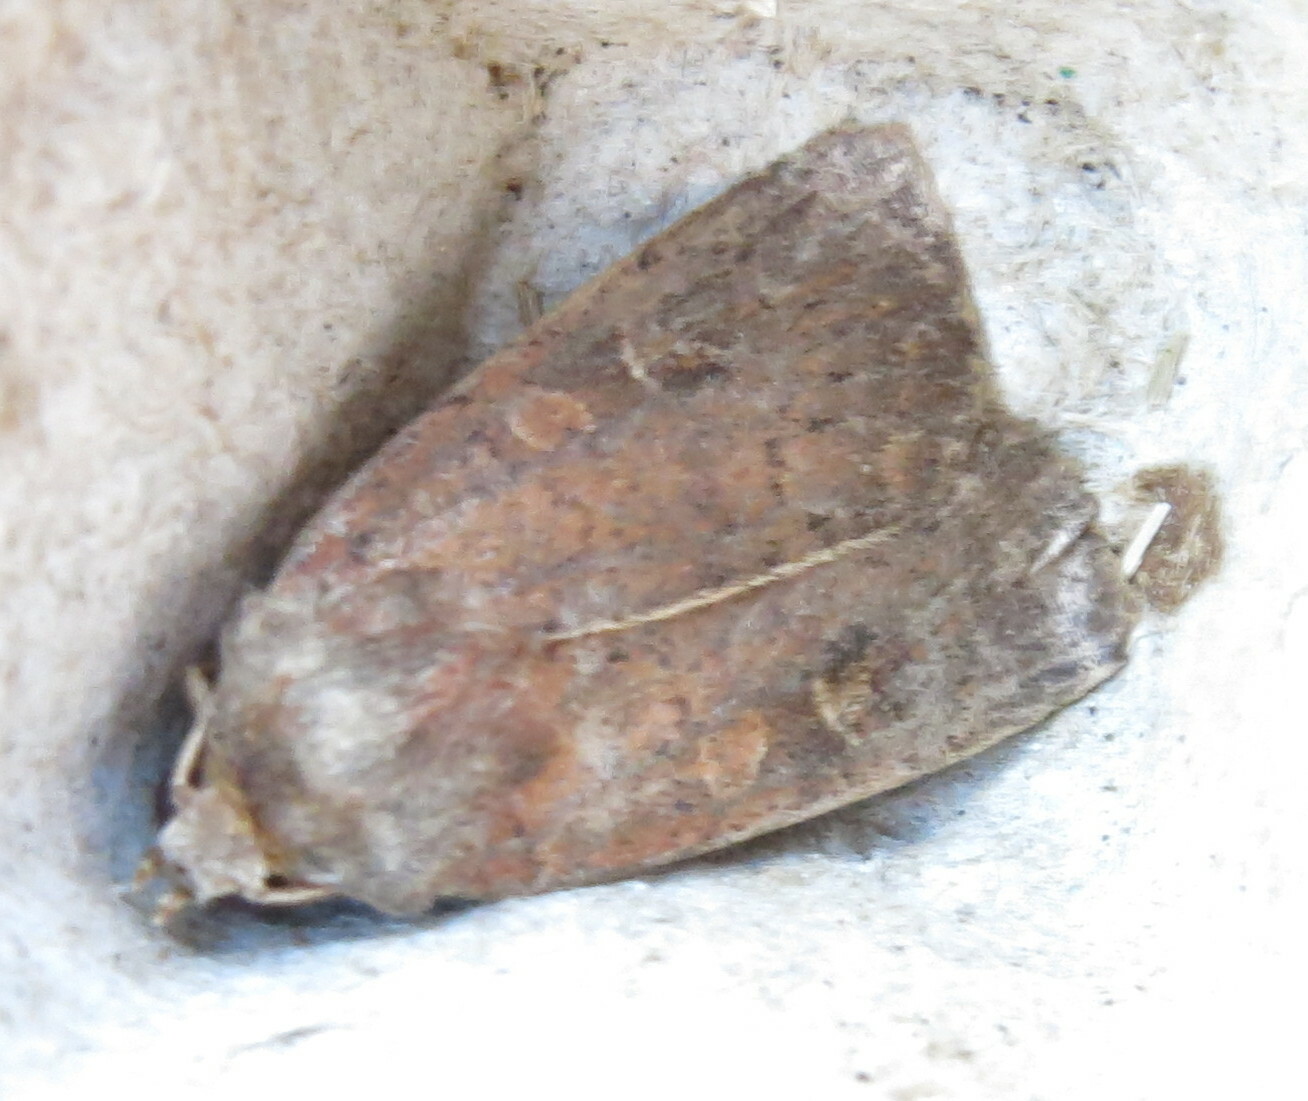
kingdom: Animalia
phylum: Arthropoda
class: Insecta
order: Lepidoptera
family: Noctuidae
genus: Xestia
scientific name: Xestia xanthographa
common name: Square-spot rustic
